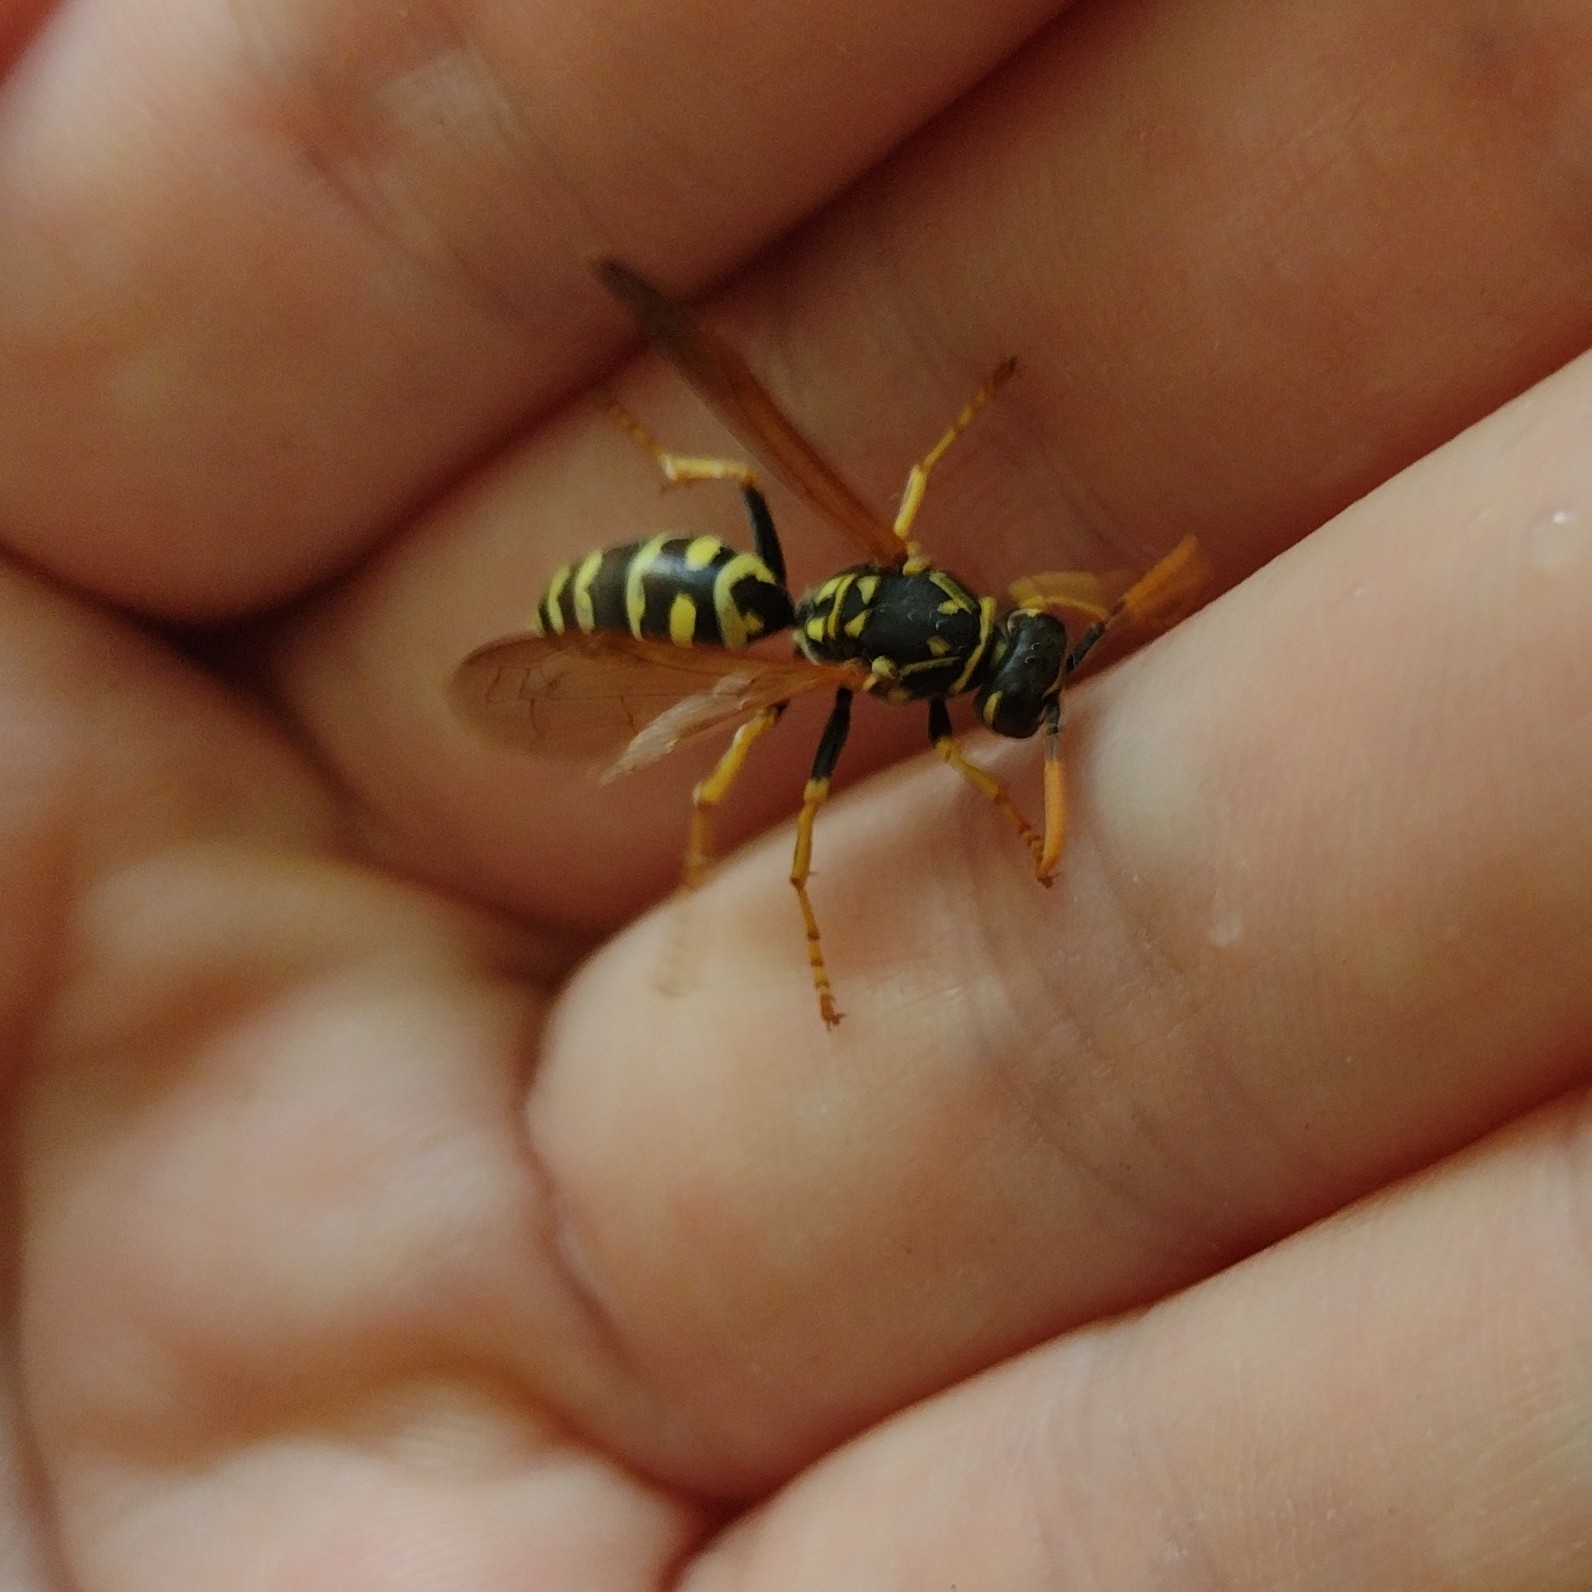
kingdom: Animalia
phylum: Arthropoda
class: Insecta
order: Hymenoptera
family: Eumenidae
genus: Polistes
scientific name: Polistes dominula
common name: Paper wasp
